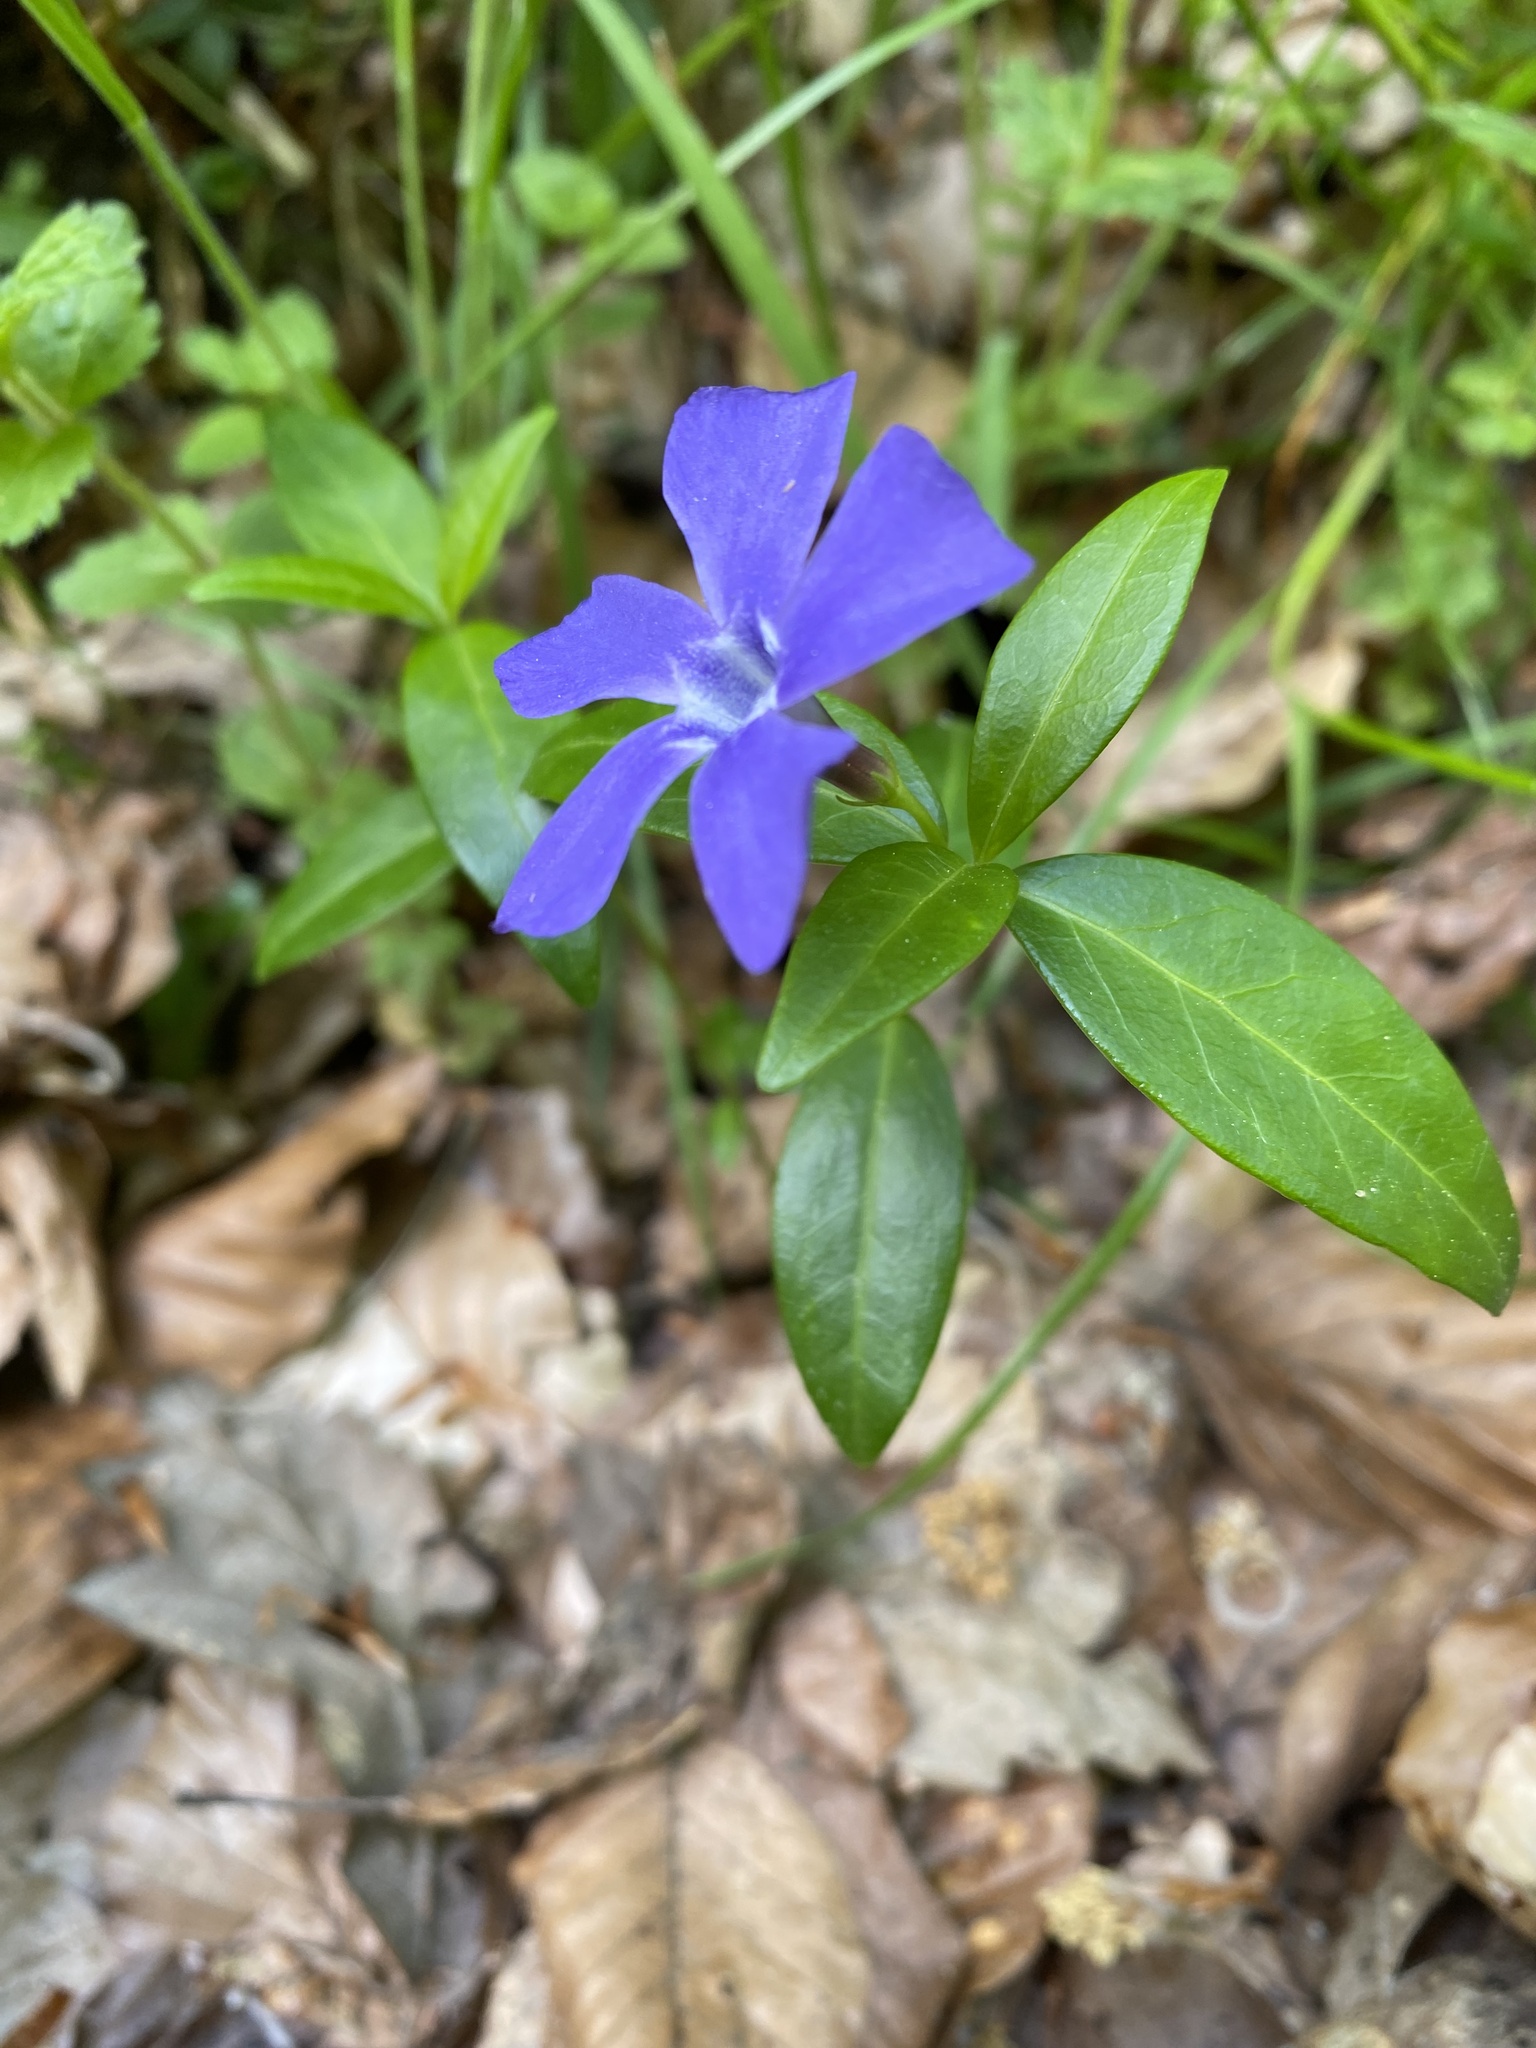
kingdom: Plantae
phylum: Tracheophyta
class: Magnoliopsida
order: Gentianales
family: Apocynaceae
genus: Vinca
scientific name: Vinca minor
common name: Lesser periwinkle
